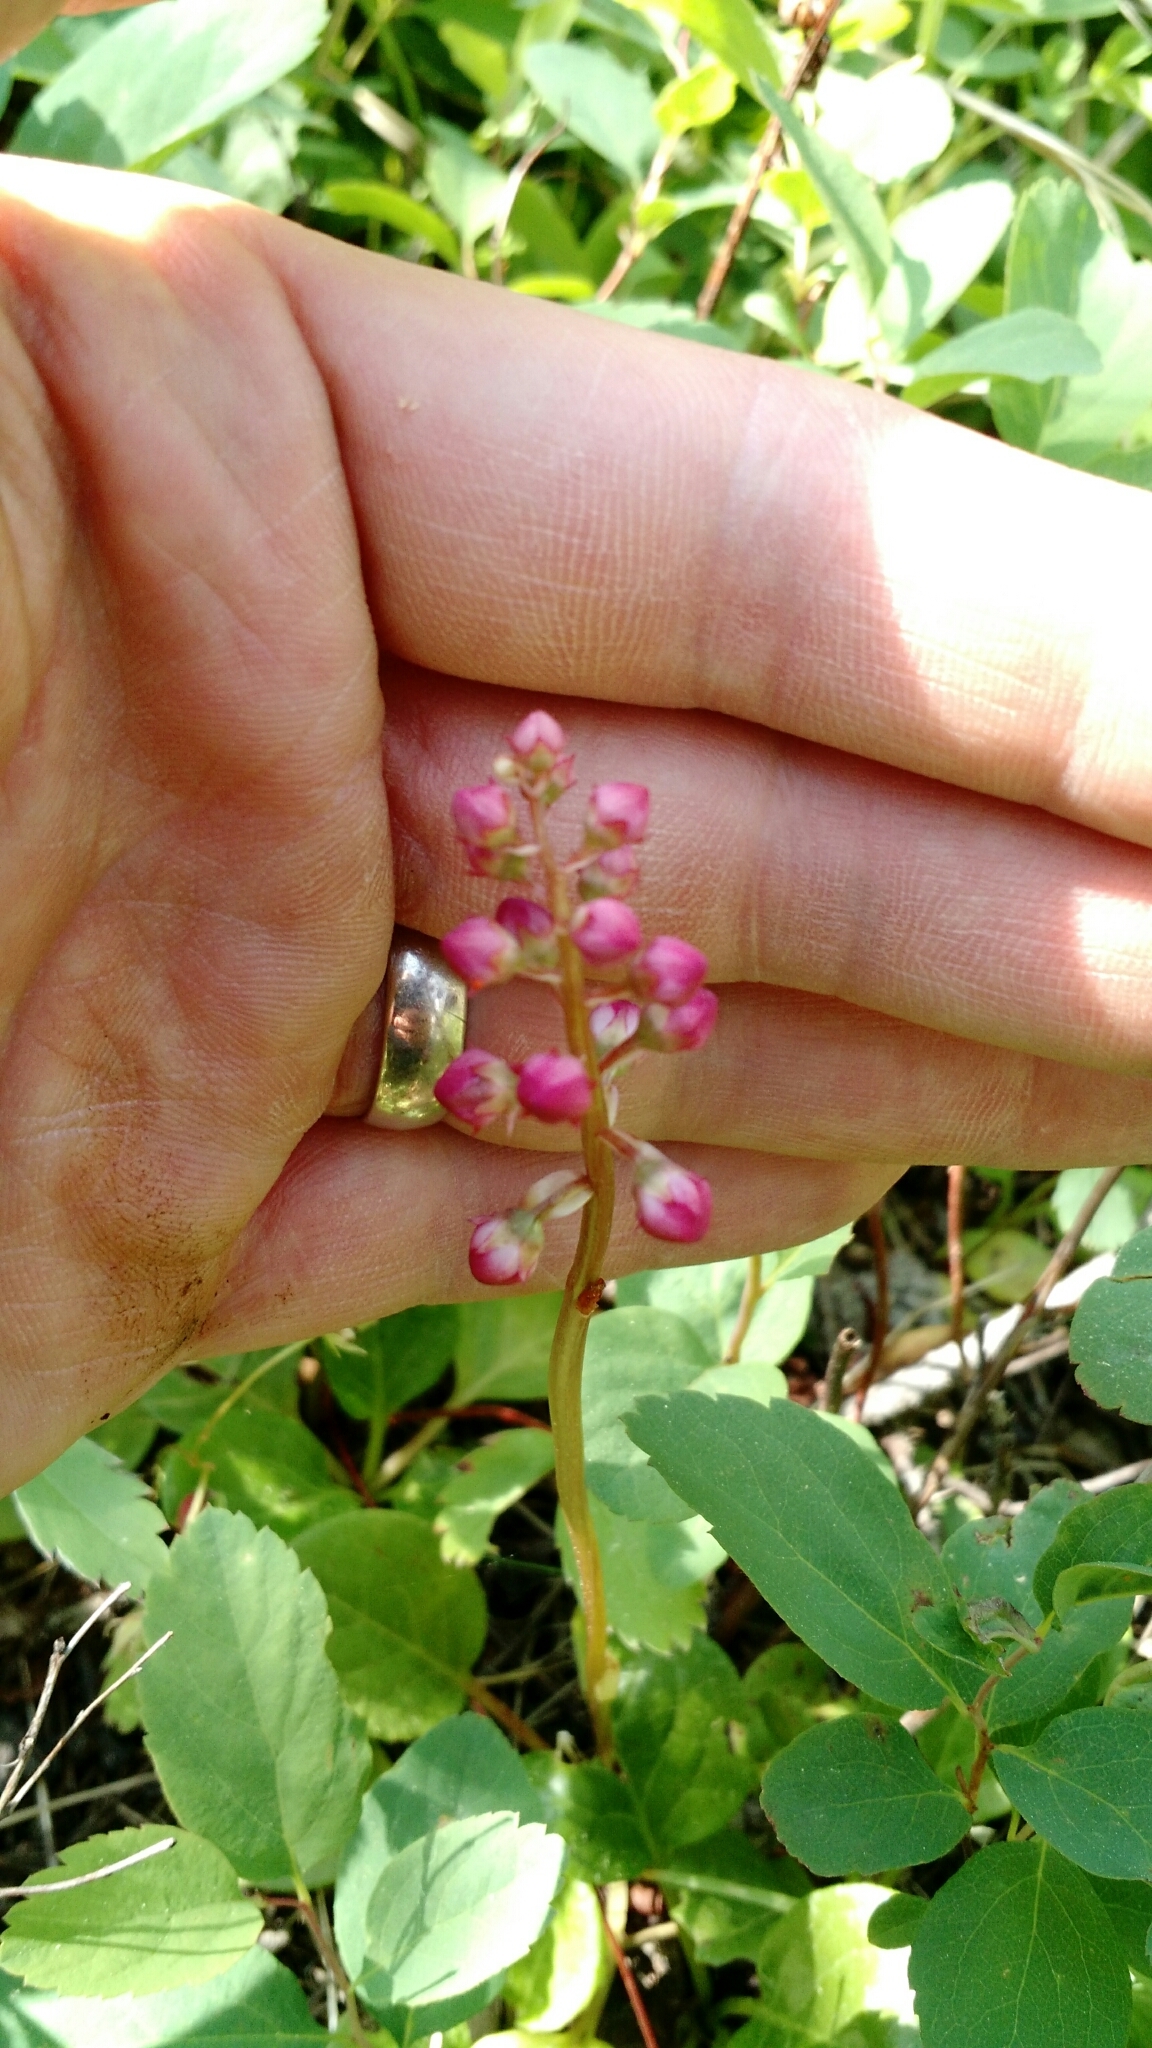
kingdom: Plantae
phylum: Tracheophyta
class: Magnoliopsida
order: Ericales
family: Ericaceae
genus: Pyrola
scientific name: Pyrola asarifolia
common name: Bog wintergreen
